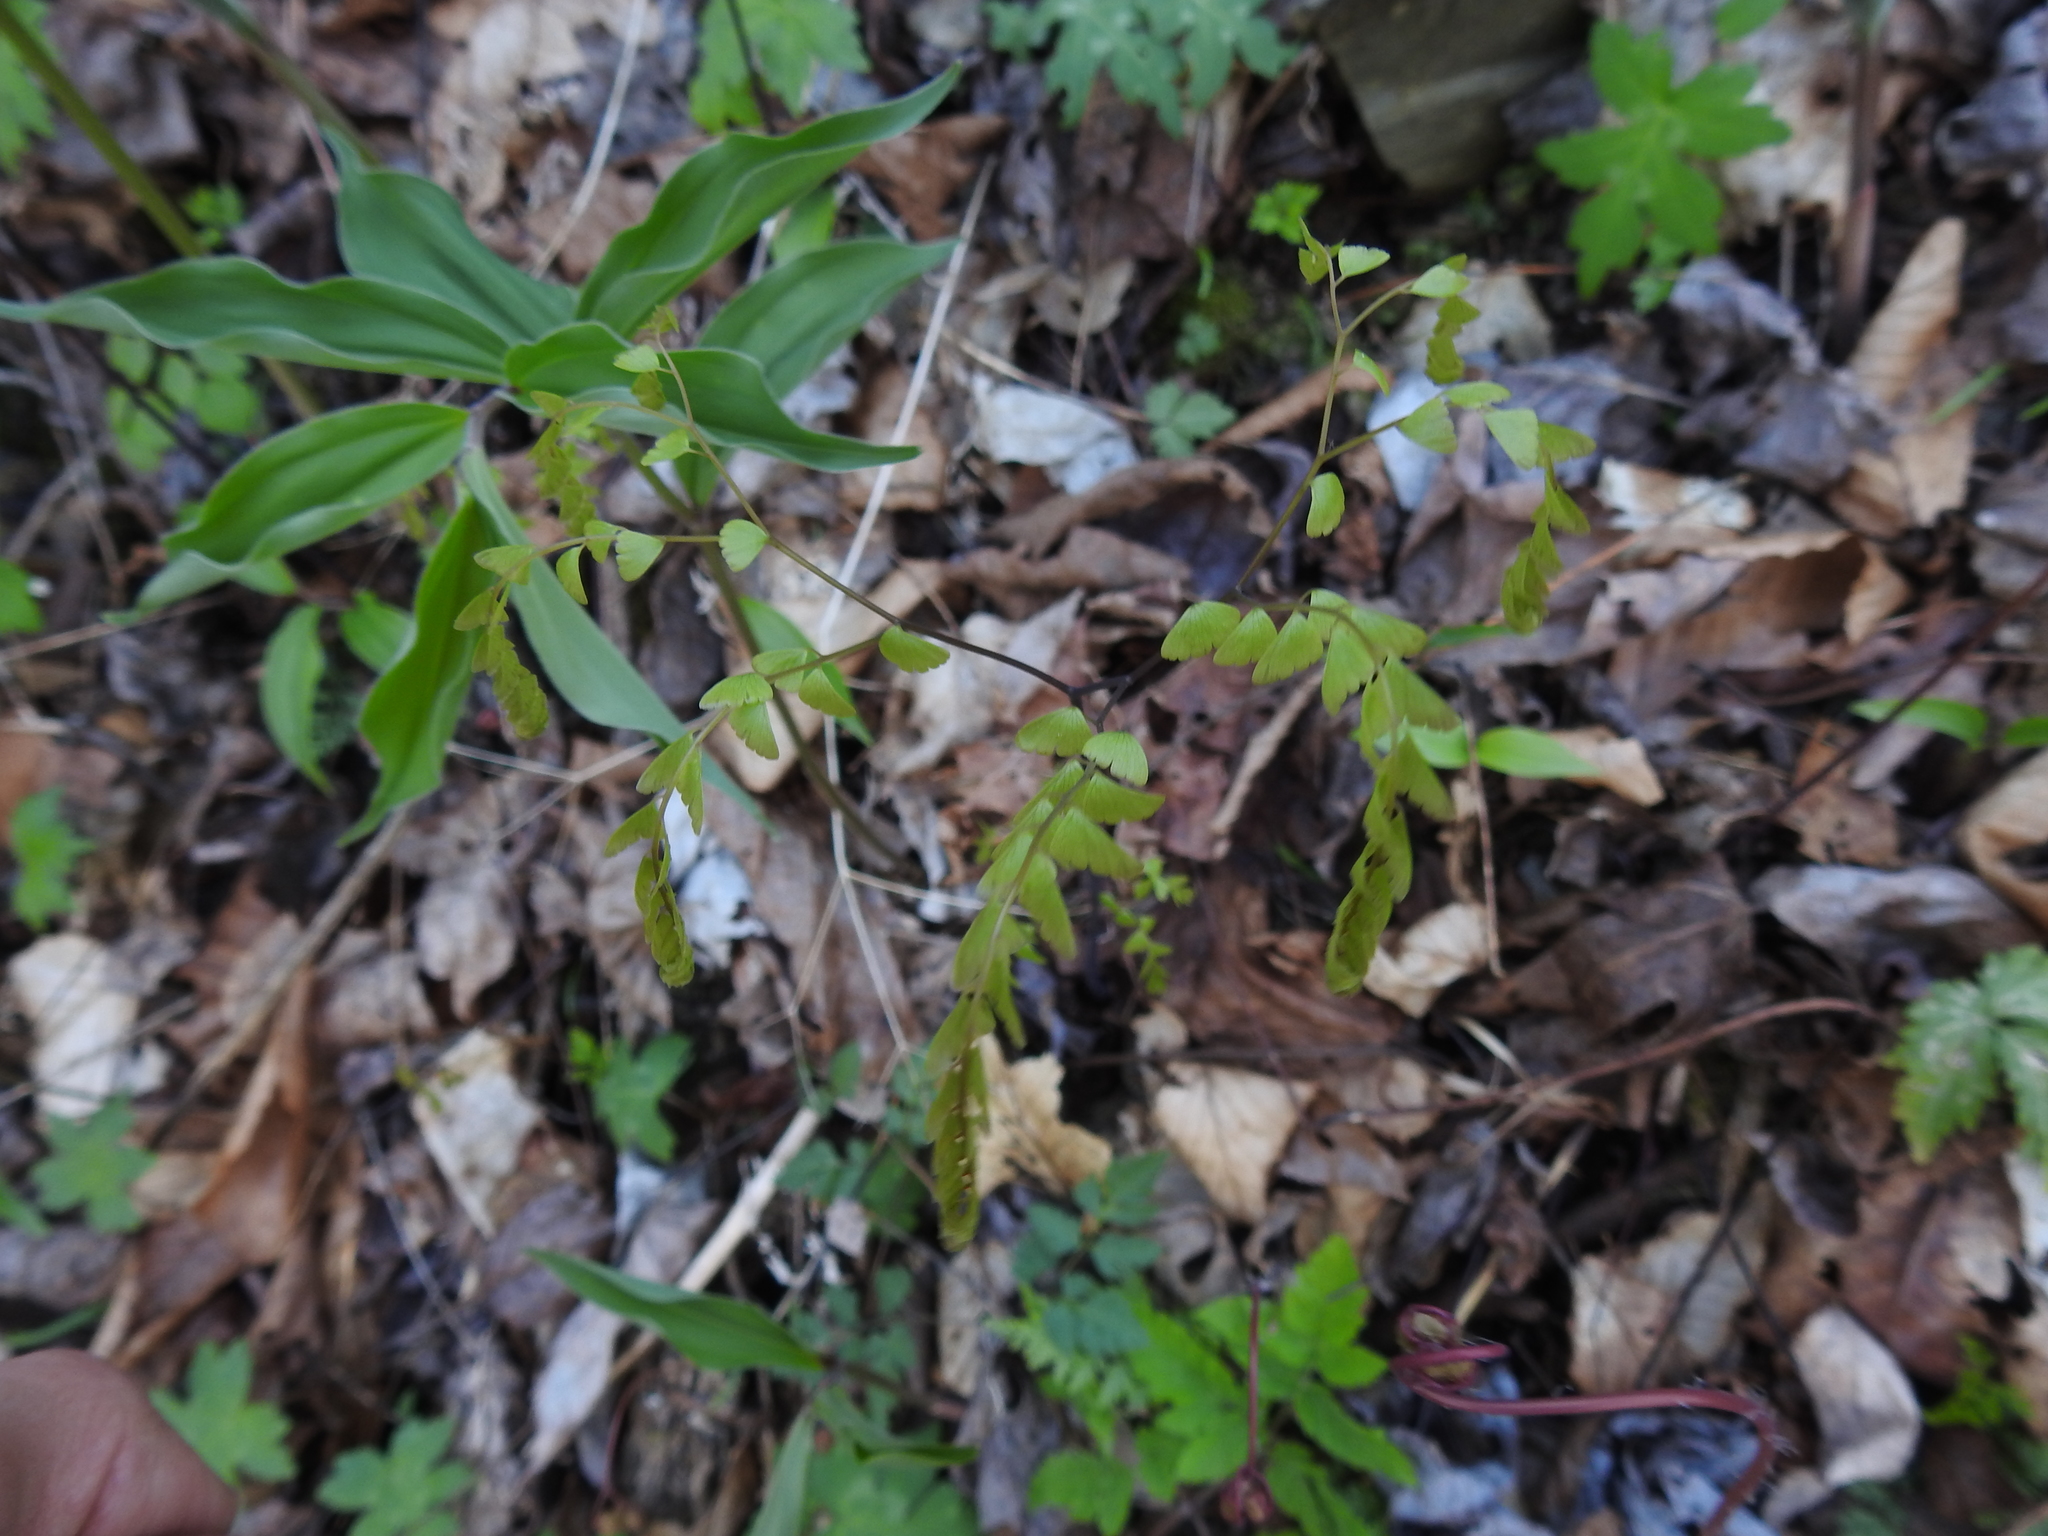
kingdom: Plantae
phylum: Tracheophyta
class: Polypodiopsida
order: Polypodiales
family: Pteridaceae
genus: Adiantum
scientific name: Adiantum pedatum
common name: Five-finger fern
